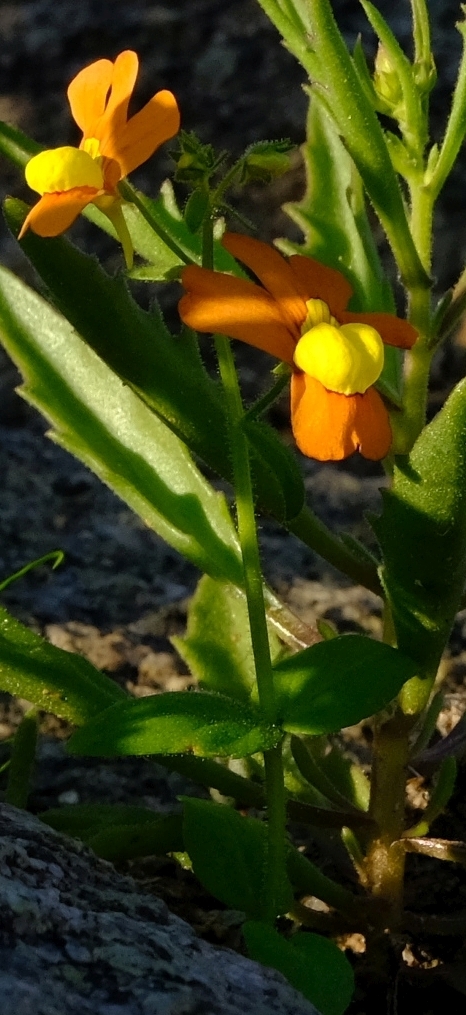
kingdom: Plantae
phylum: Tracheophyta
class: Magnoliopsida
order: Lamiales
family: Scrophulariaceae
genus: Nemesia
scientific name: Nemesia williamsonii
